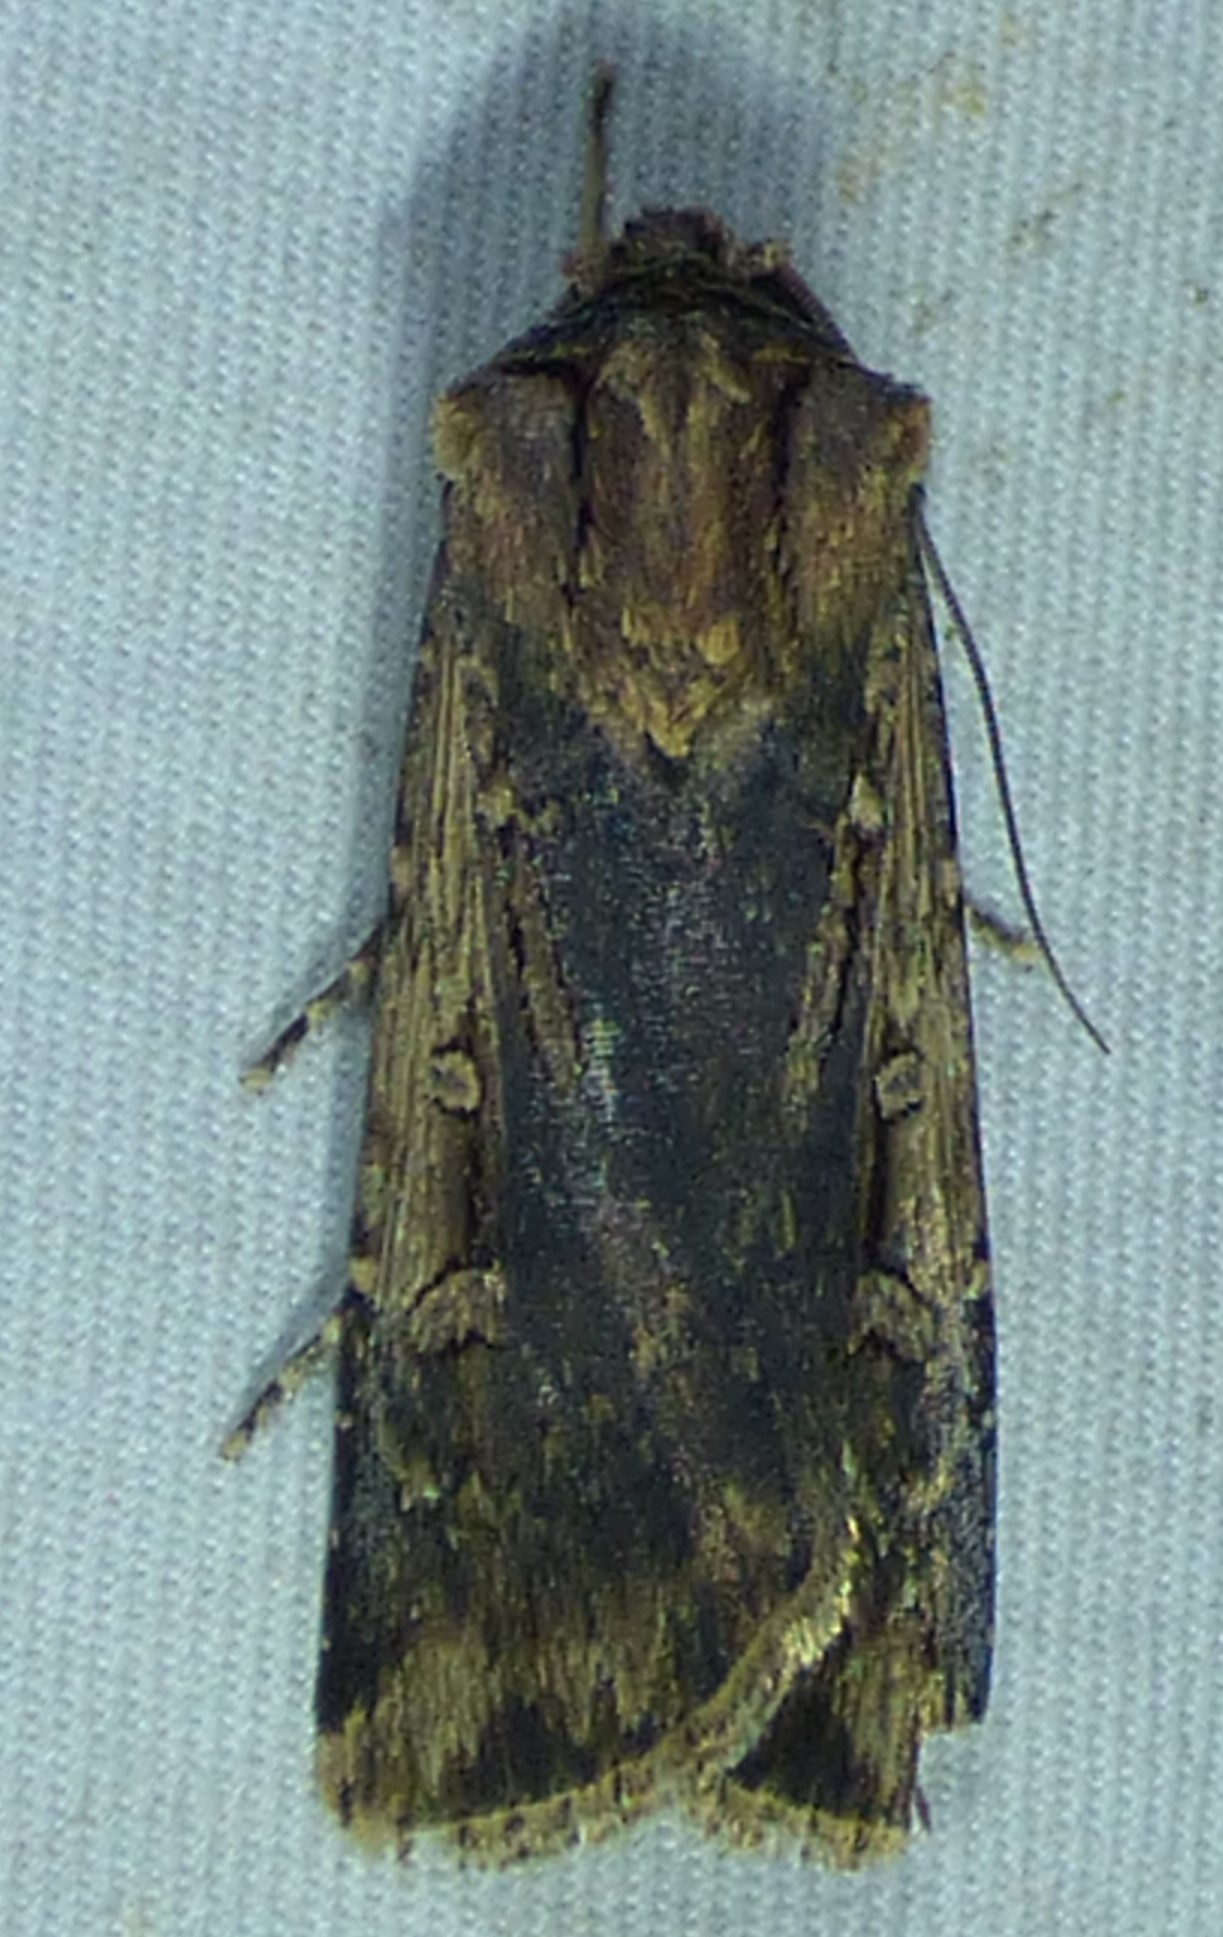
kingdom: Animalia
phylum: Arthropoda
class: Insecta
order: Lepidoptera
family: Noctuidae
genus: Feltia
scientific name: Feltia subterranea
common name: Granulate cutworm
